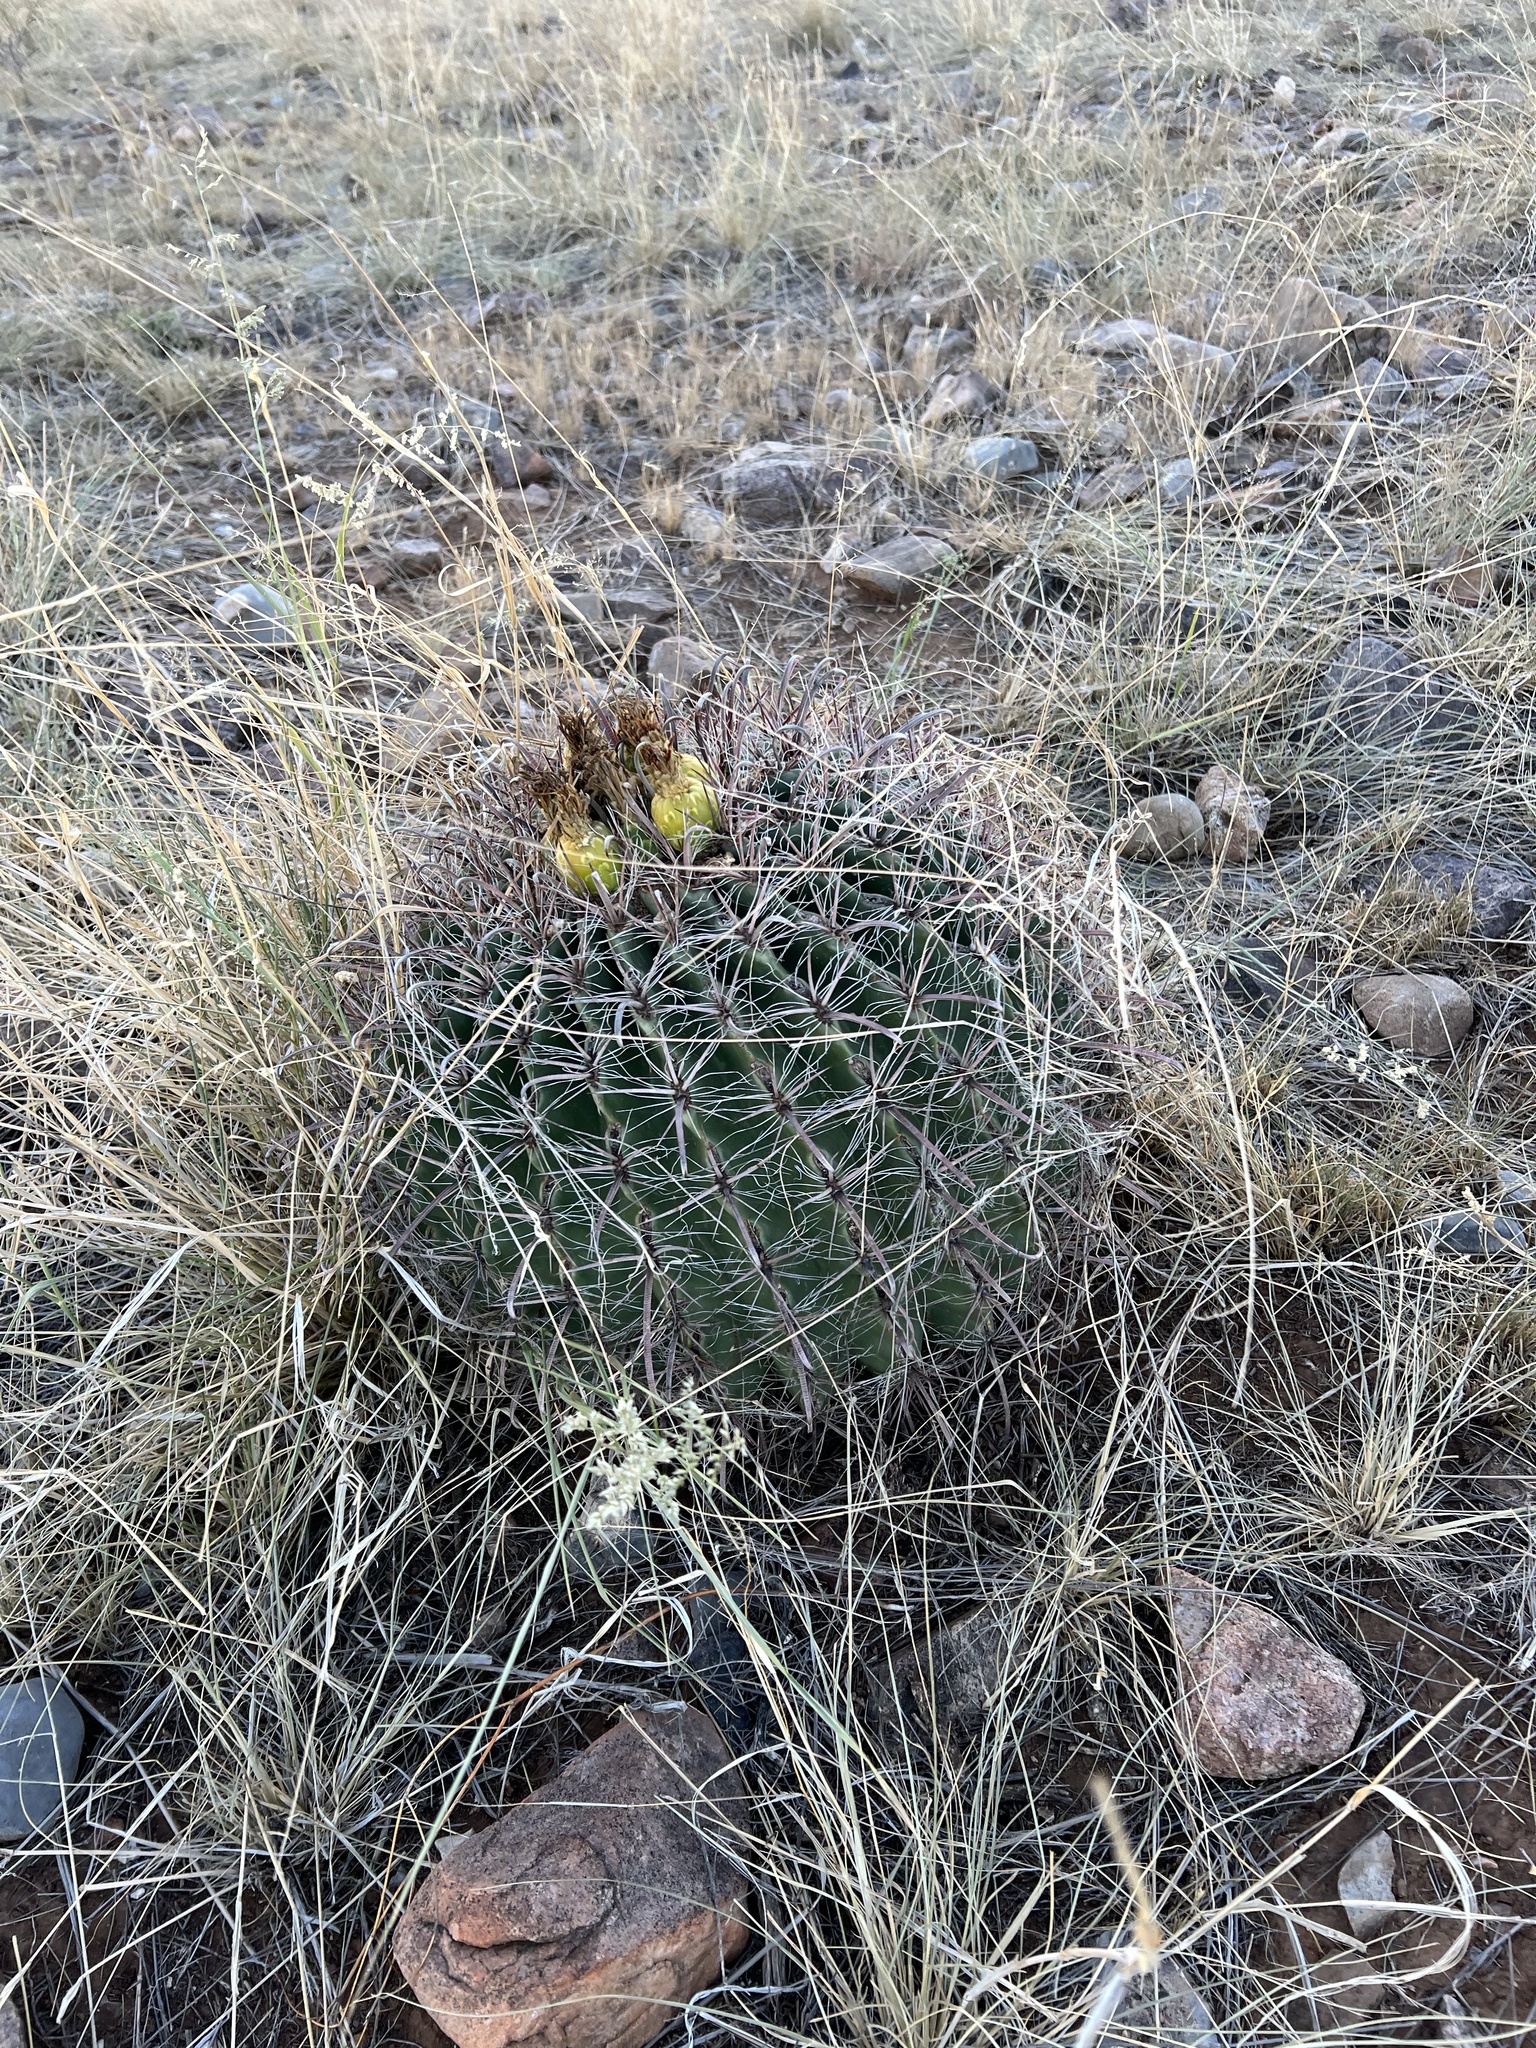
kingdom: Plantae
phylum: Tracheophyta
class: Magnoliopsida
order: Caryophyllales
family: Cactaceae
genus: Ferocactus
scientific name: Ferocactus wislizeni
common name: Candy barrel cactus
